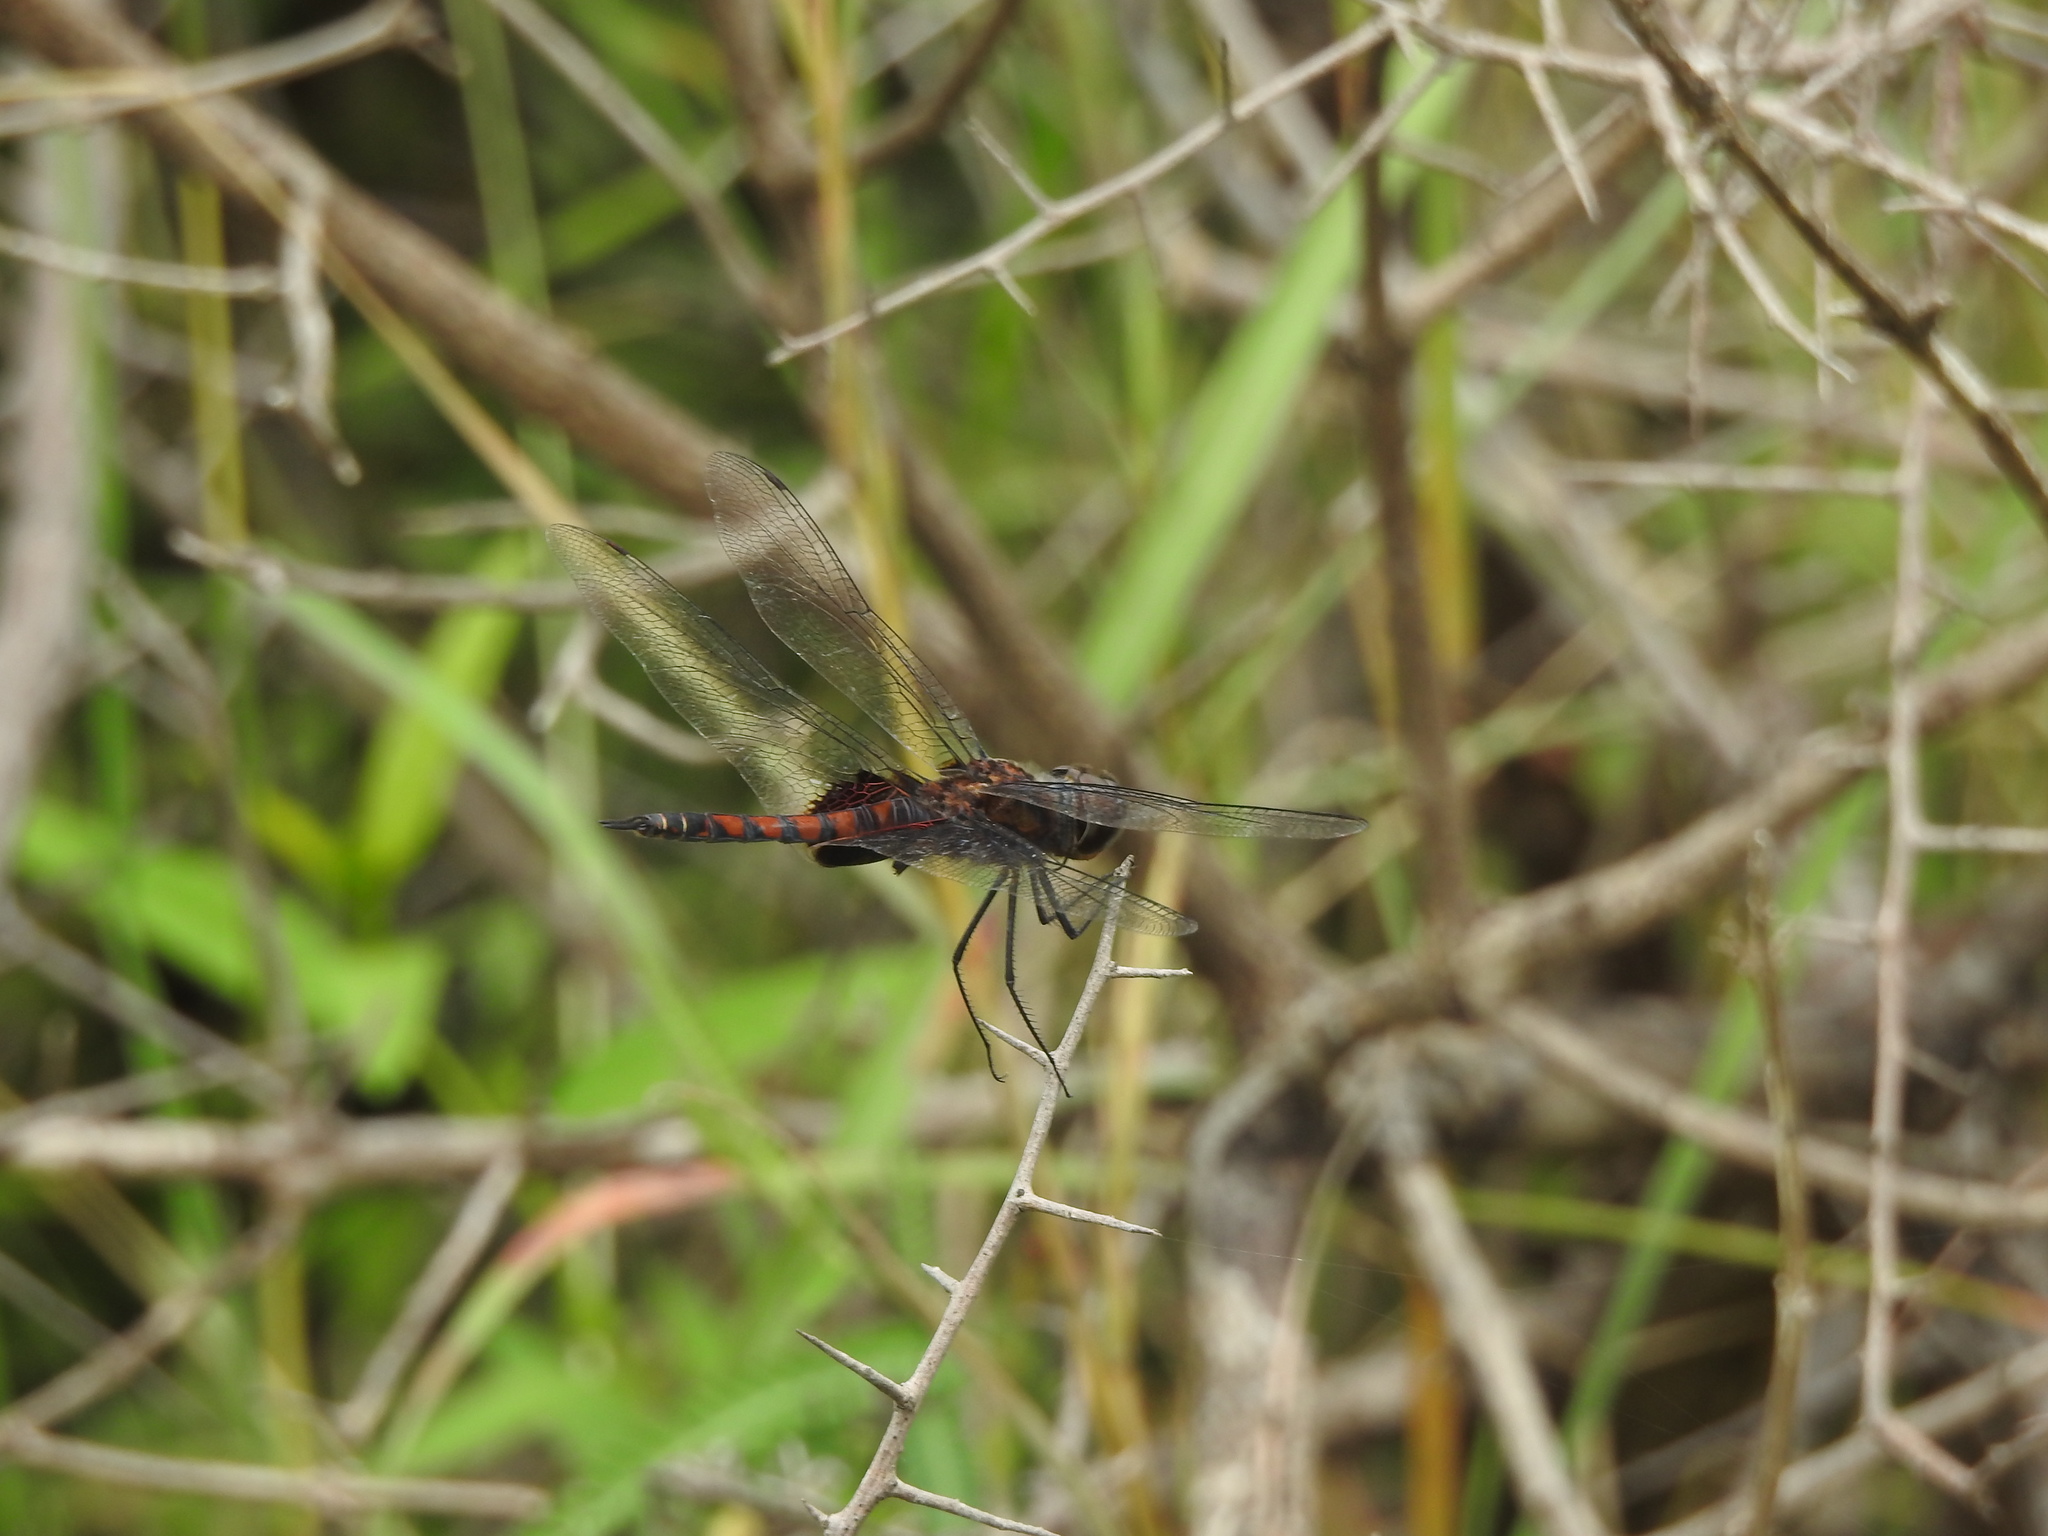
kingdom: Animalia
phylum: Arthropoda
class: Insecta
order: Odonata
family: Libellulidae
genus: Tramea
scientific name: Tramea limbata
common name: Ferruginous glider
